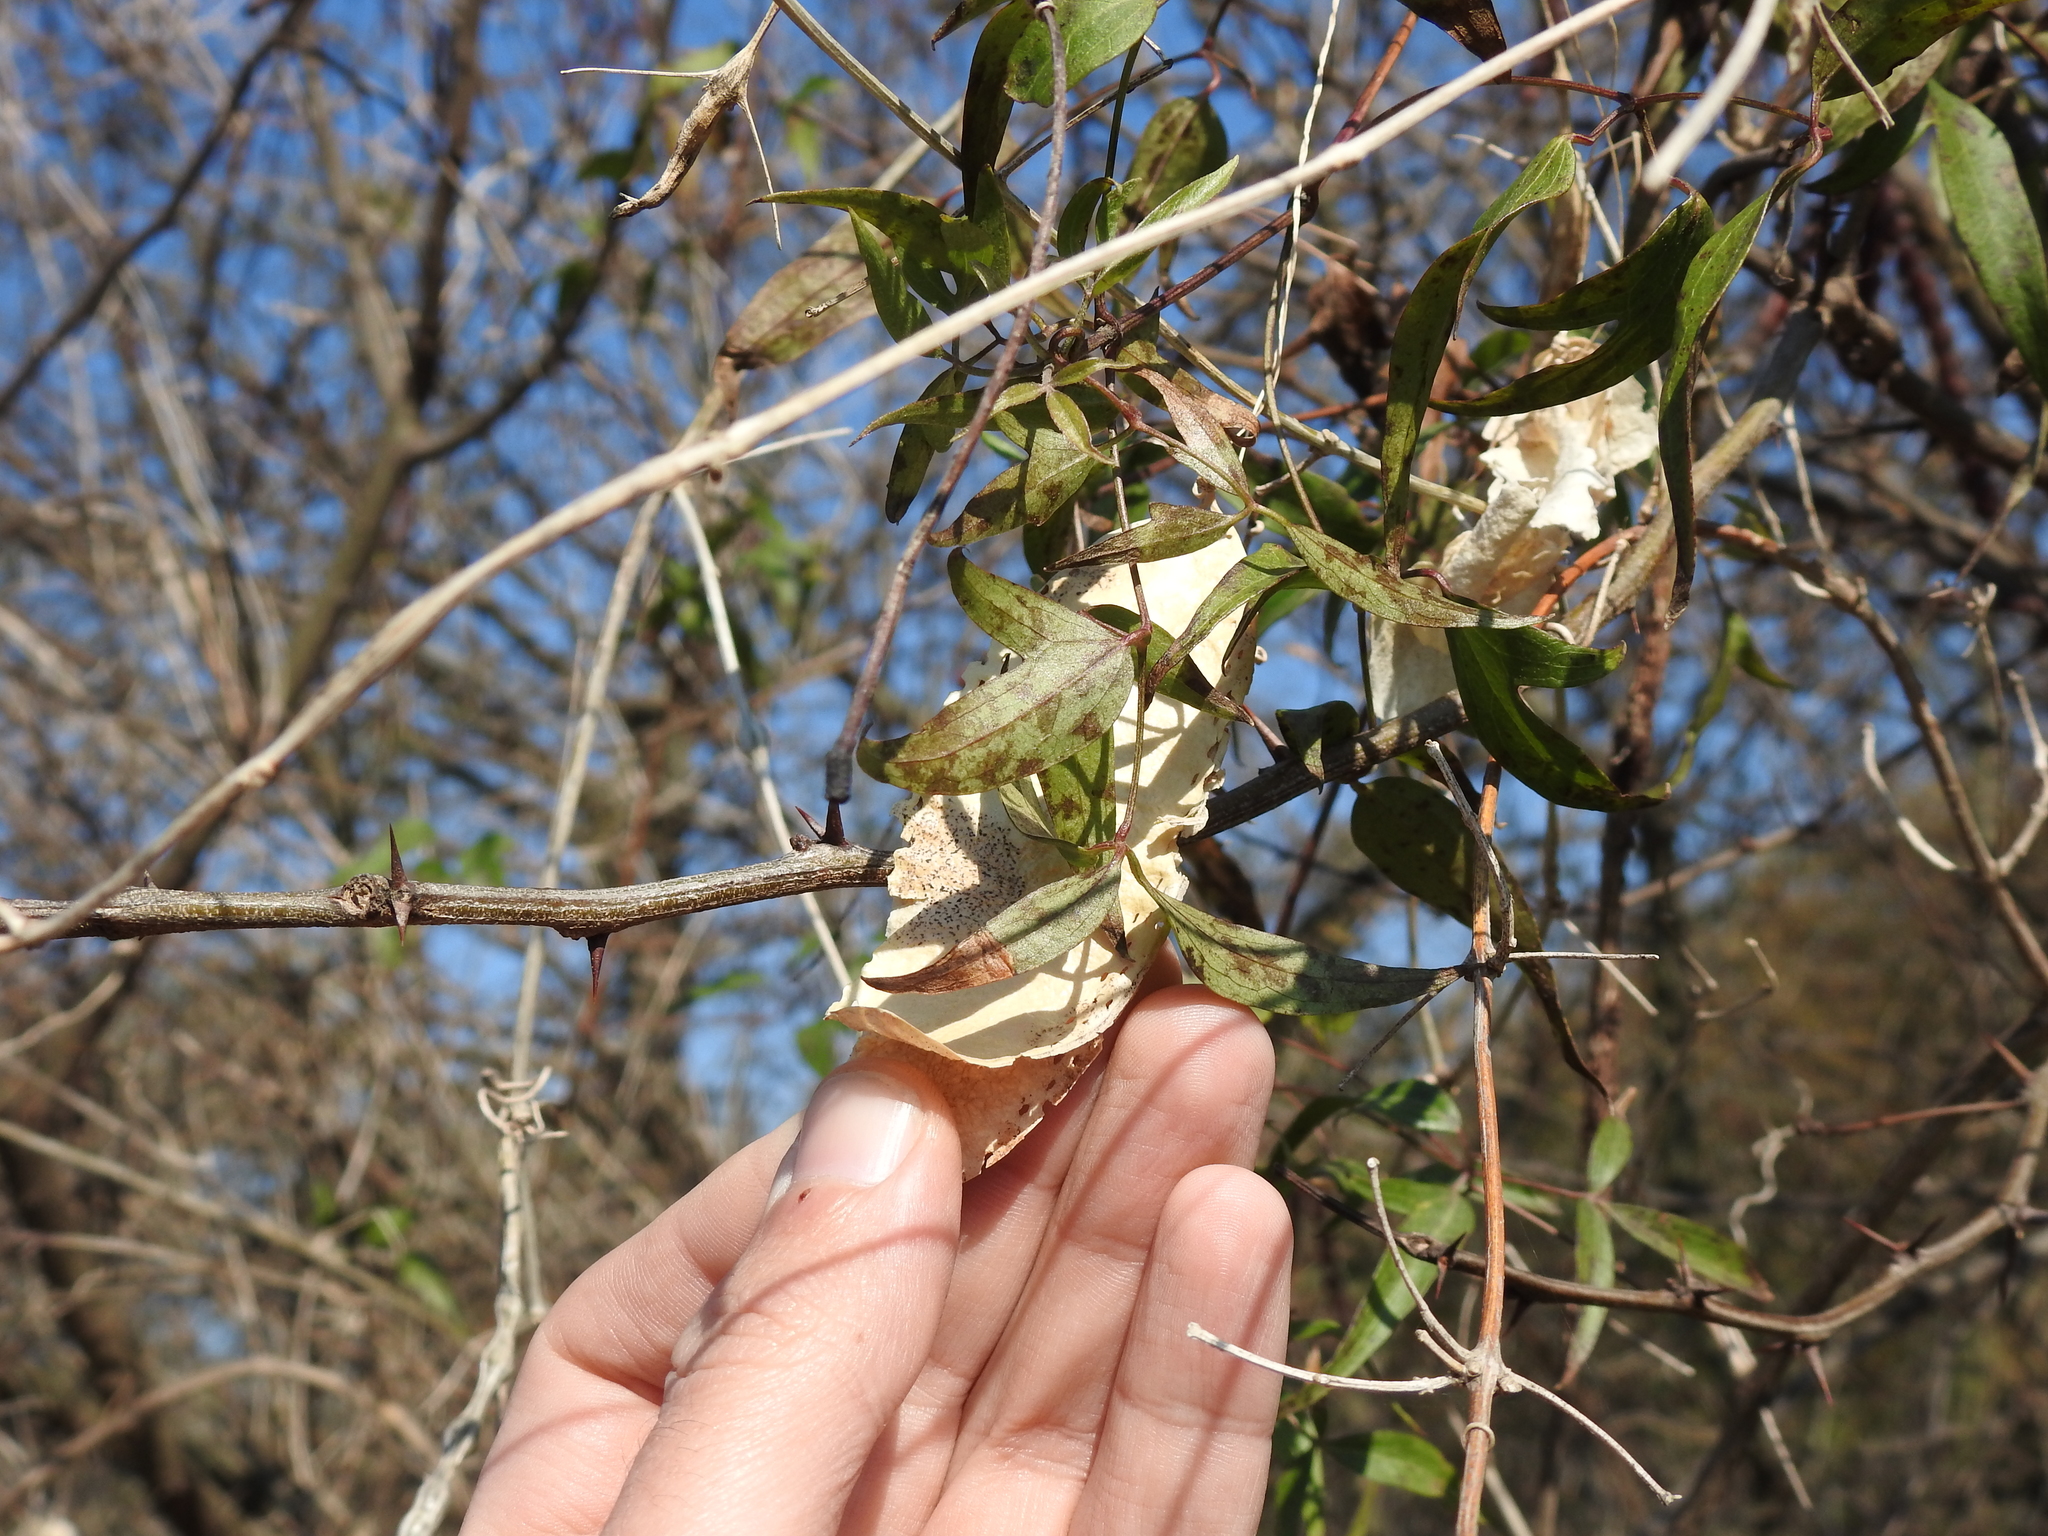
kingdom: Plantae
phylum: Tracheophyta
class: Magnoliopsida
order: Ranunculales
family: Ranunculaceae
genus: Clematis
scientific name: Clematis montevidensis
